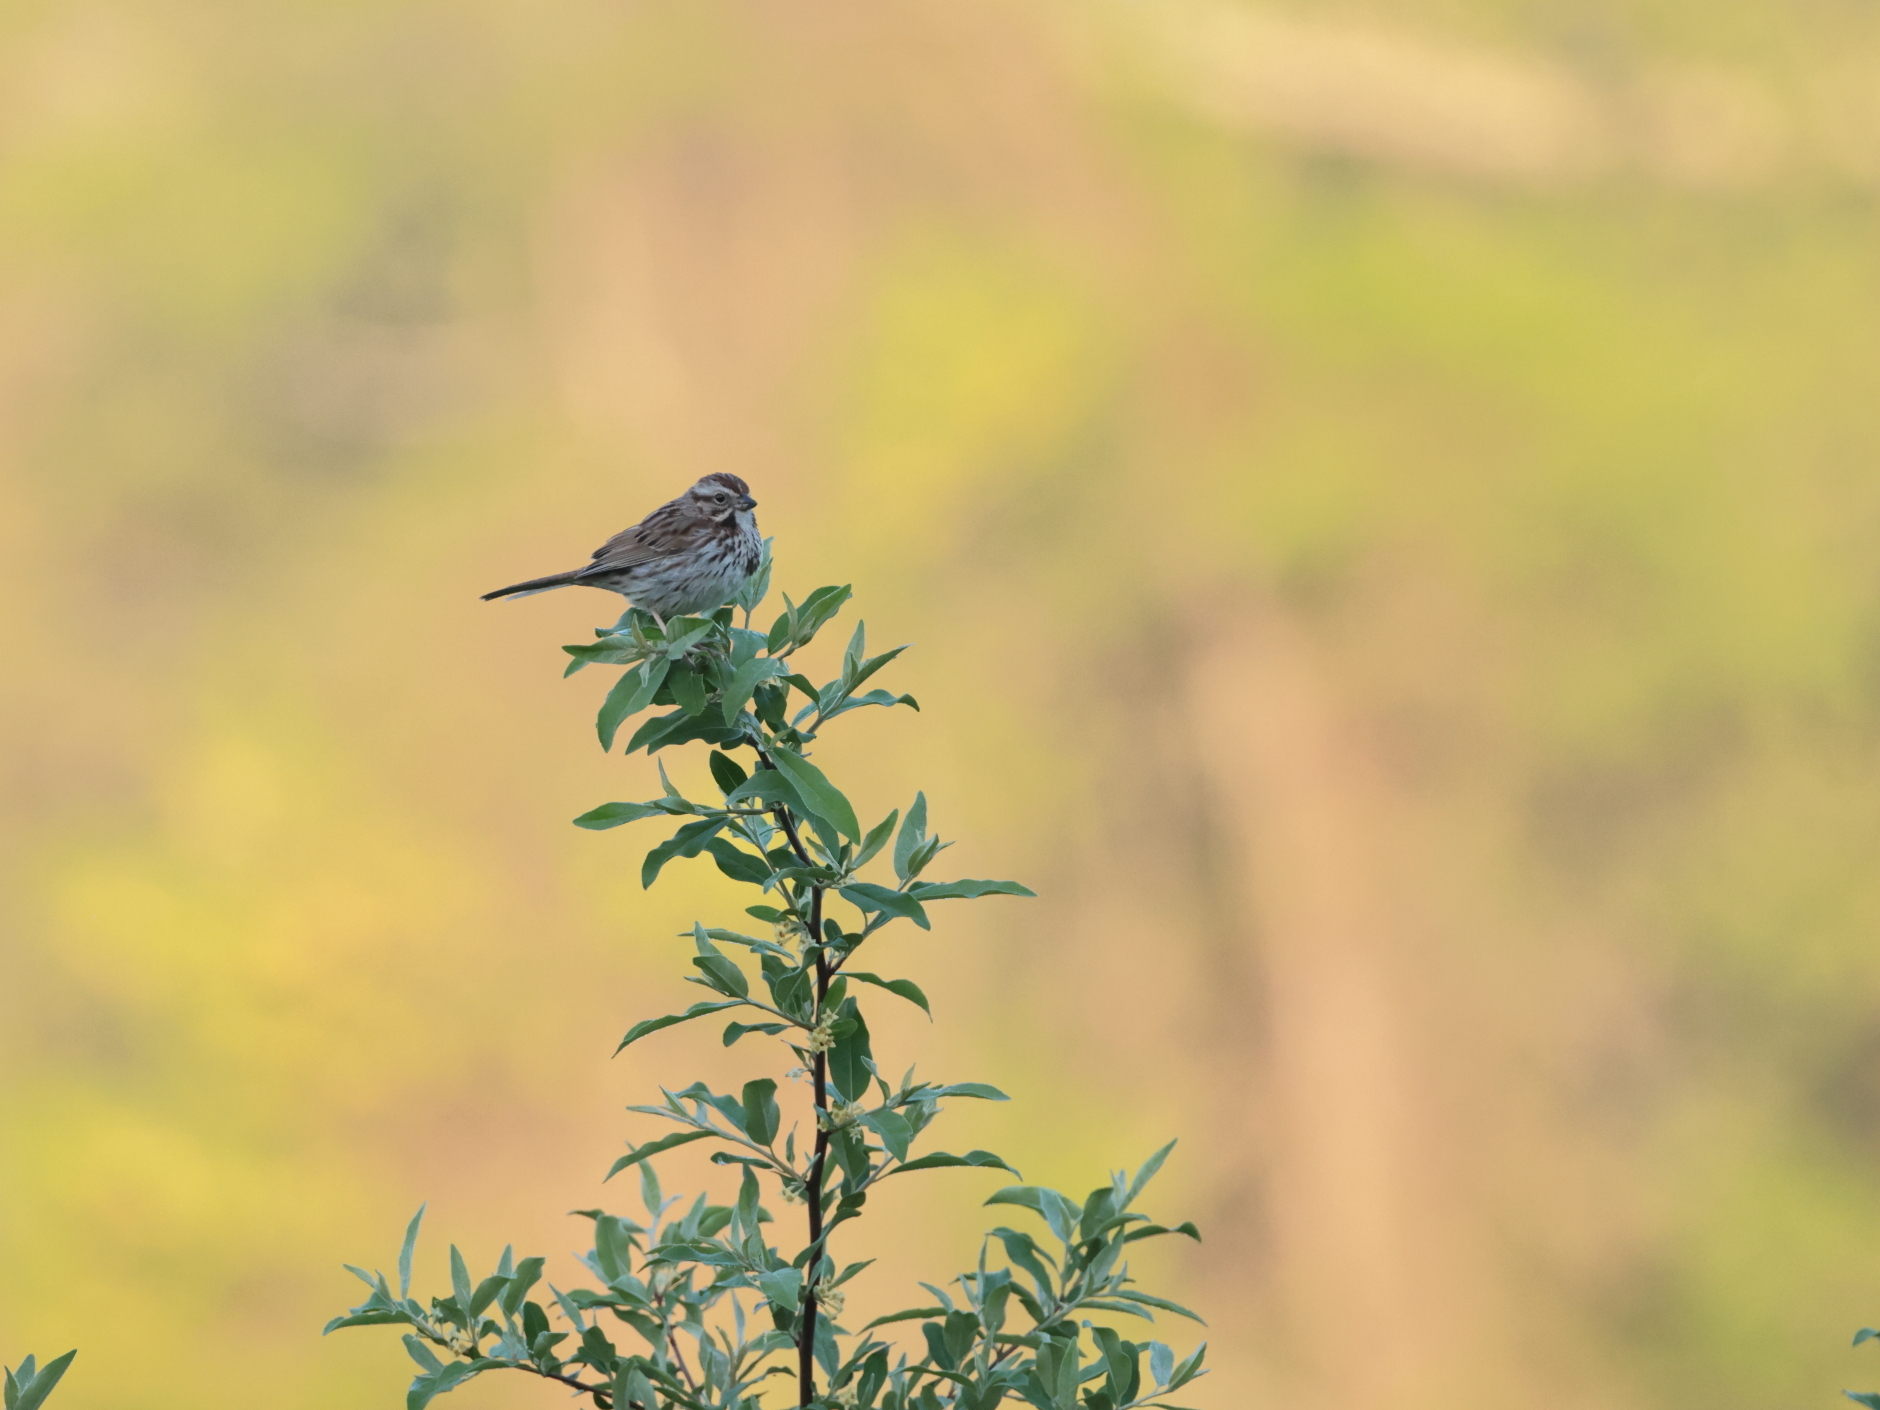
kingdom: Animalia
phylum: Chordata
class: Aves
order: Passeriformes
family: Passerellidae
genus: Melospiza
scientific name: Melospiza melodia
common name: Song sparrow
